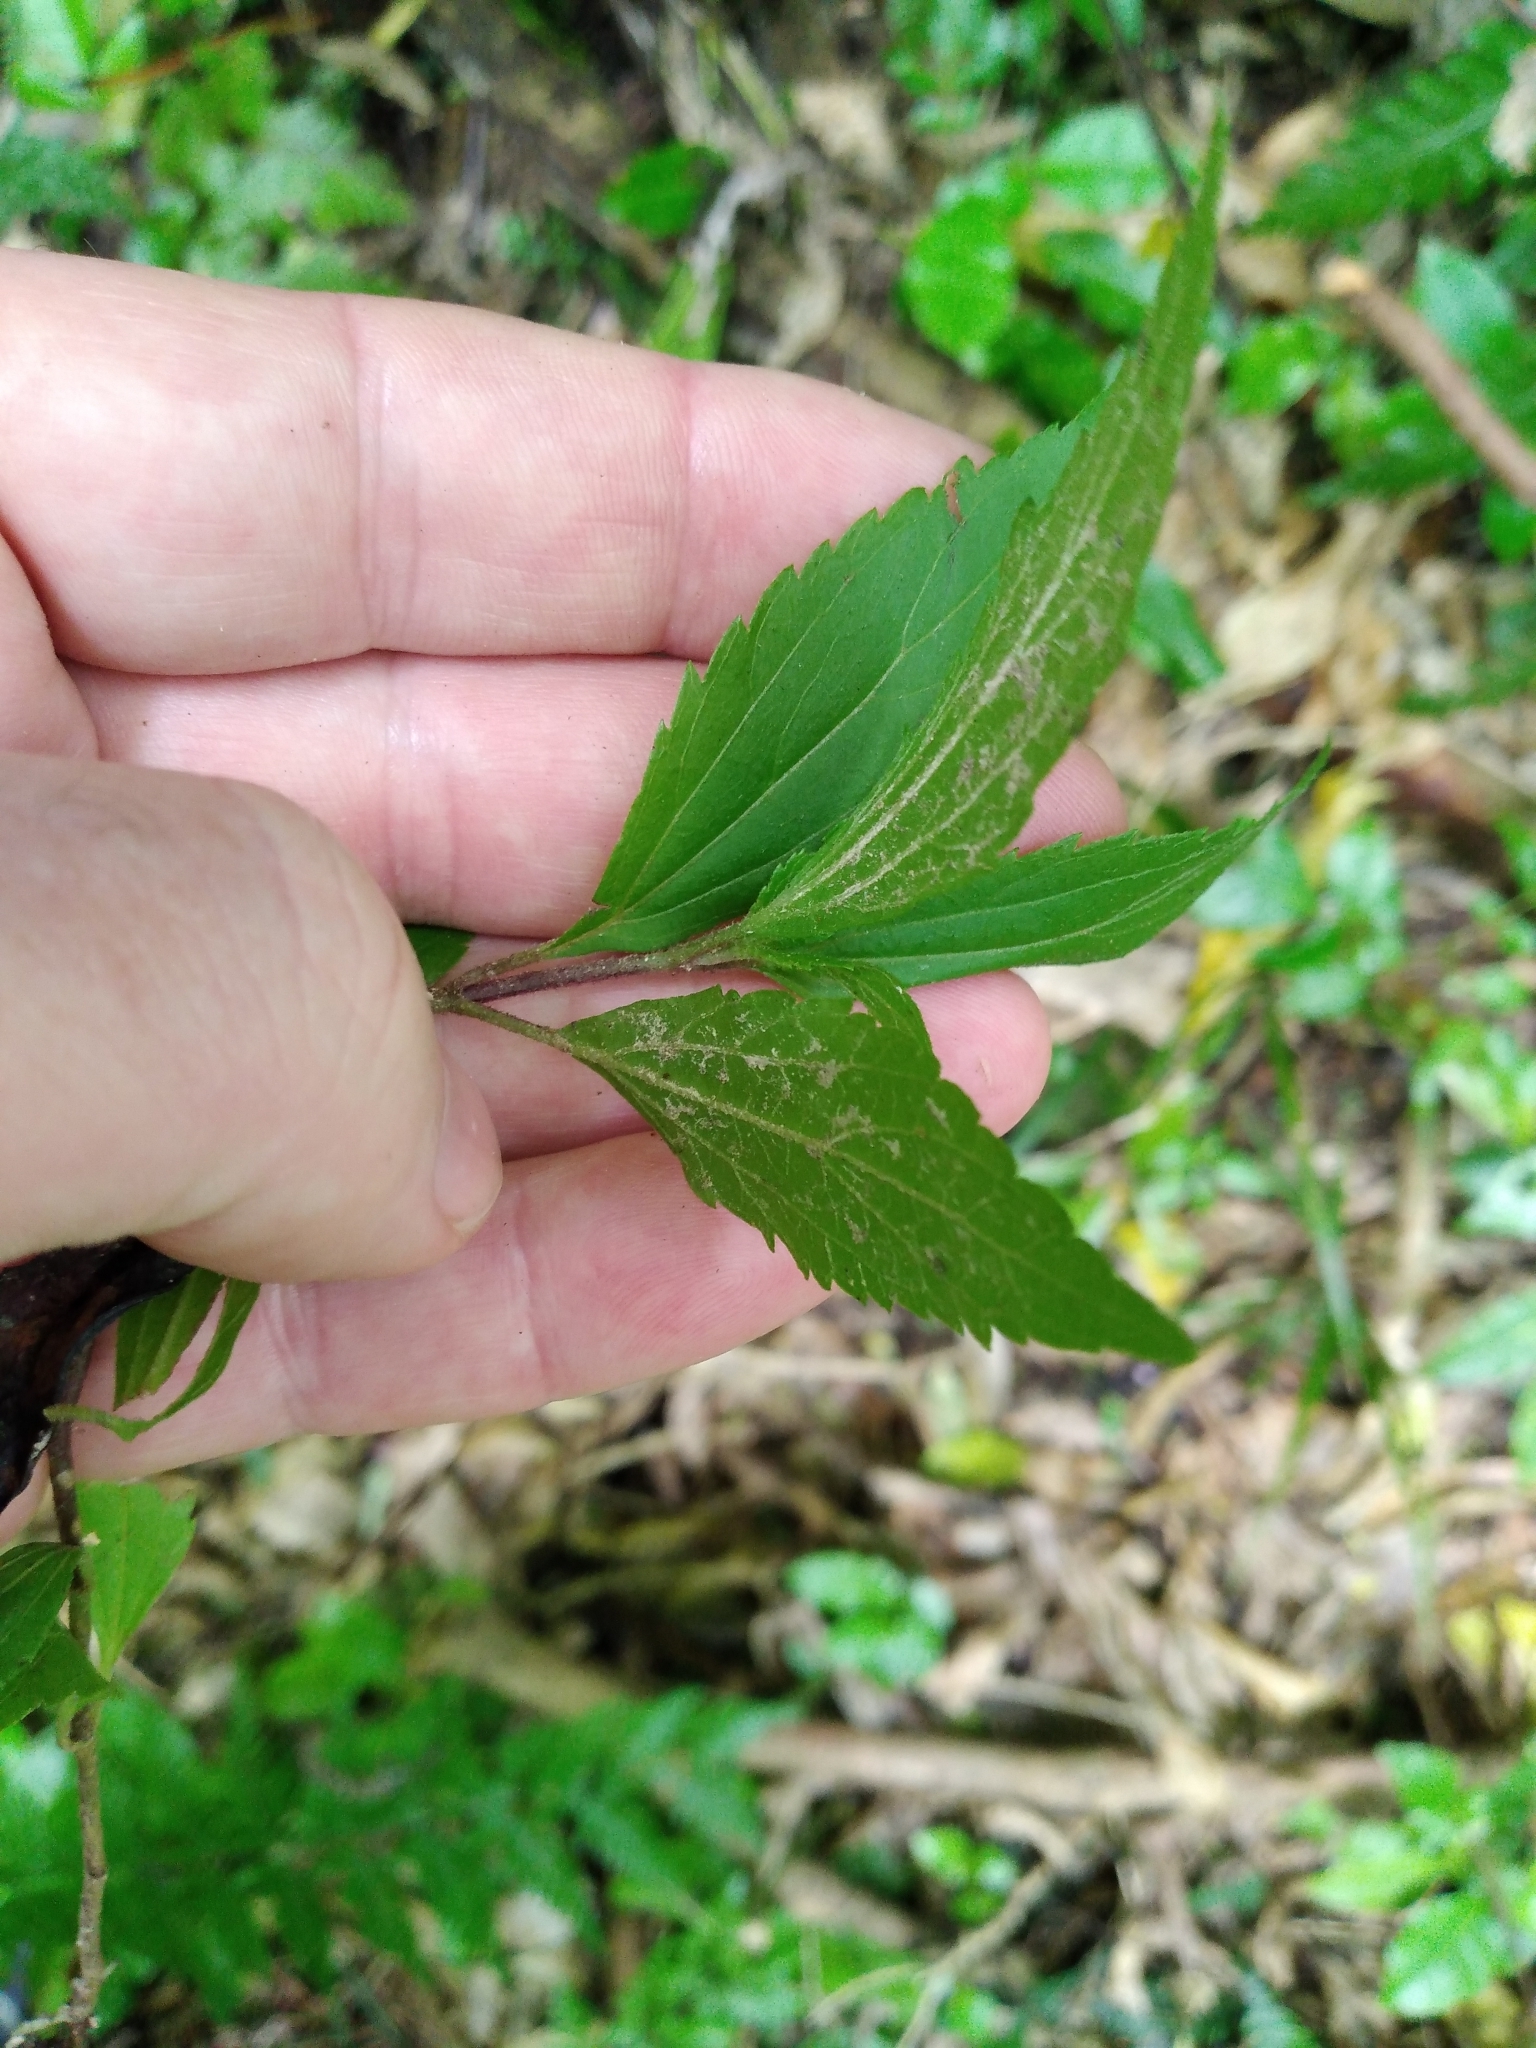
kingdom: Plantae
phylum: Tracheophyta
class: Magnoliopsida
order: Asterales
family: Asteraceae
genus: Ageratina
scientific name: Ageratina riparia
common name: Creeping croftonweed
